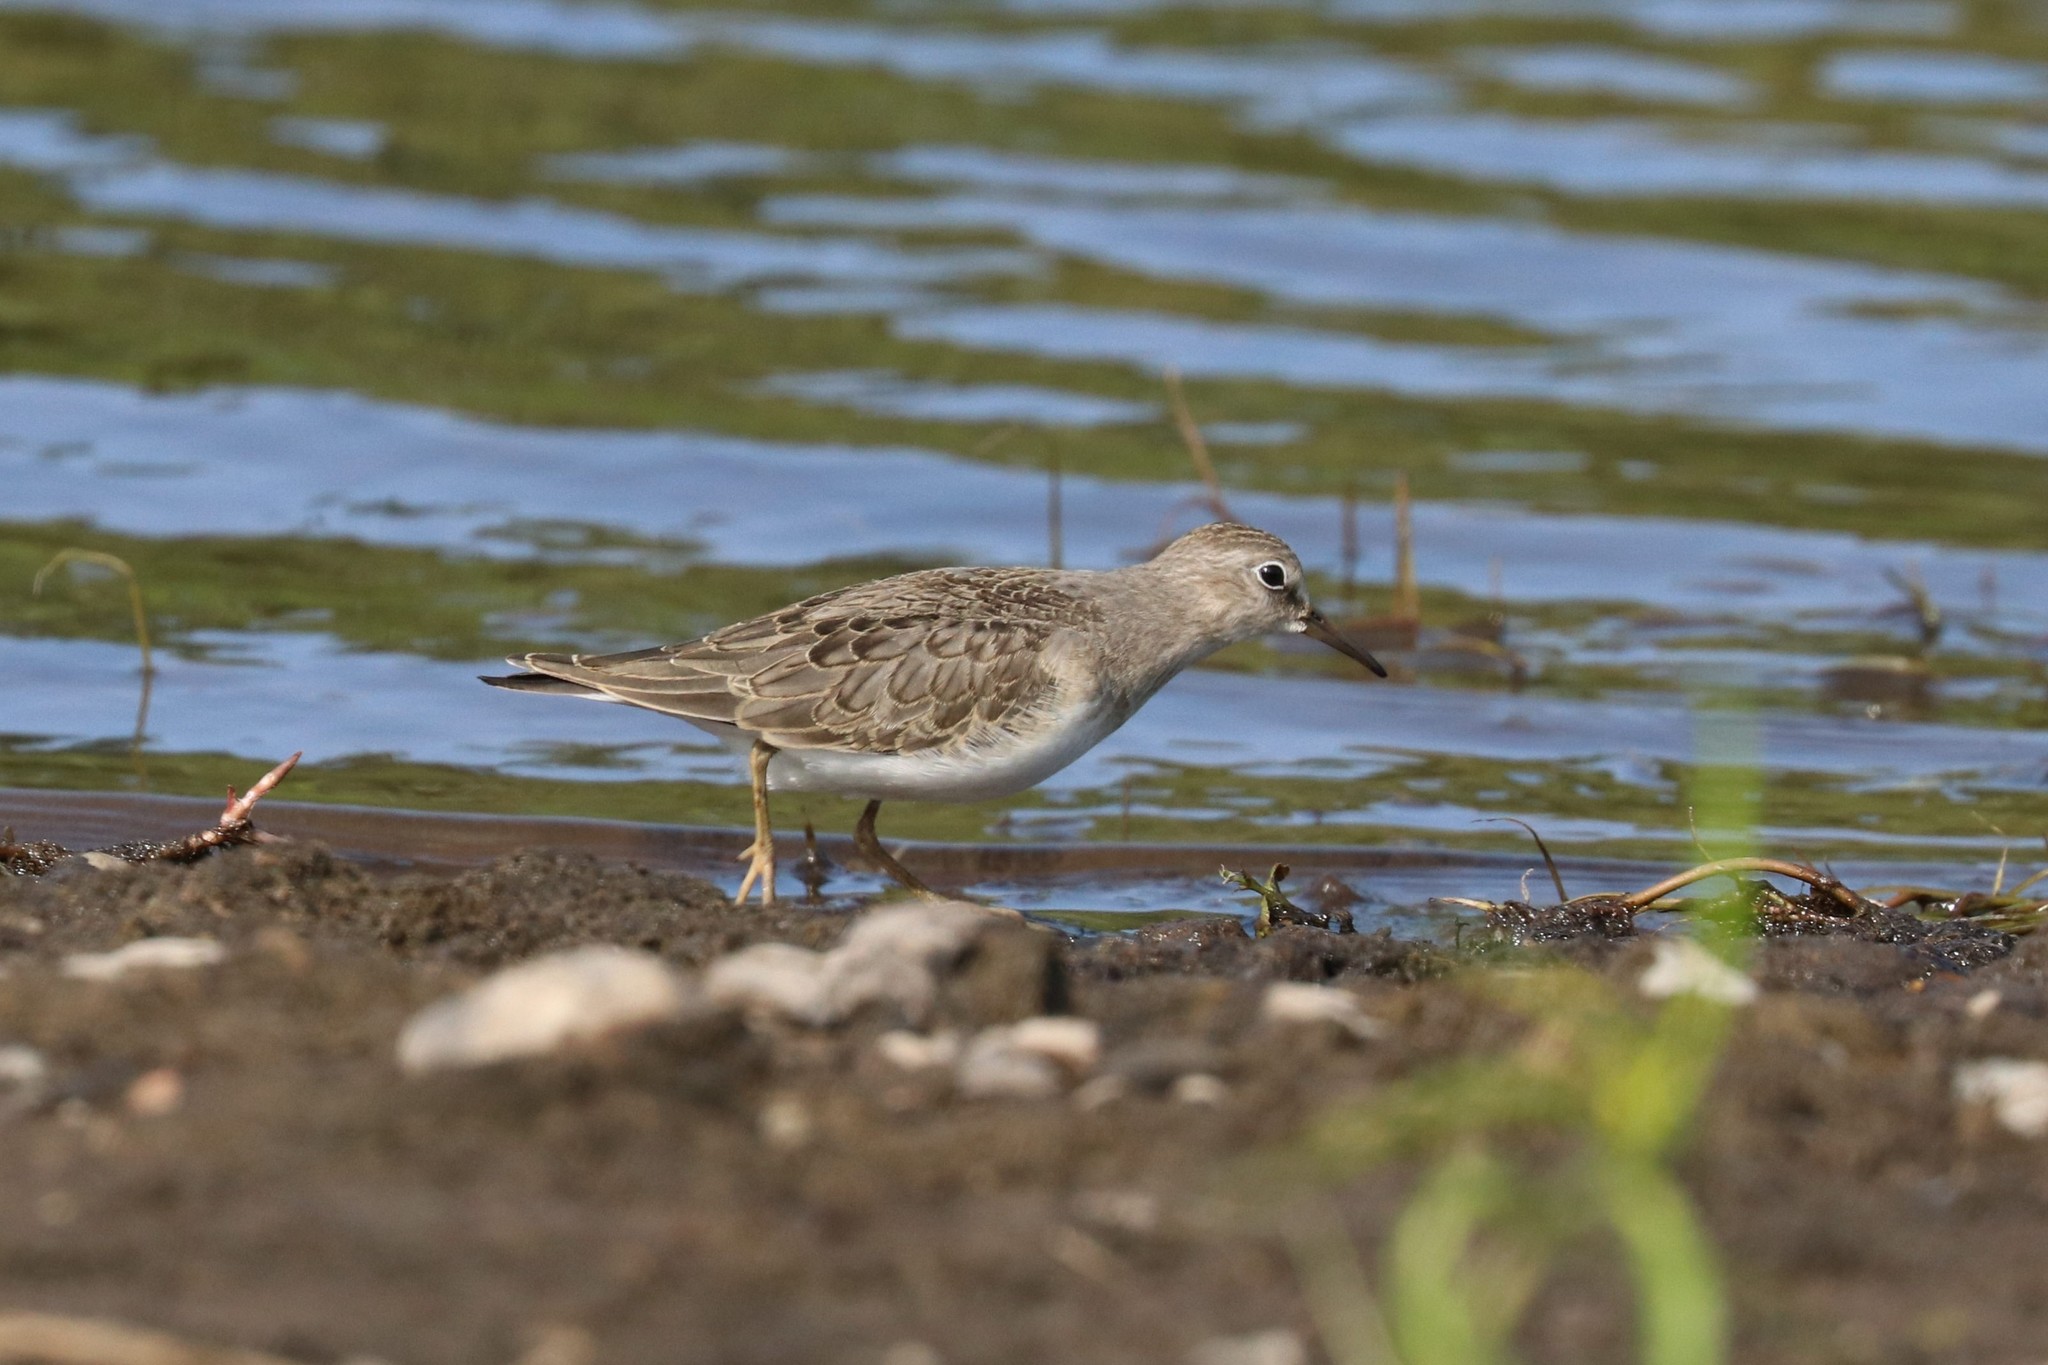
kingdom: Animalia
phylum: Chordata
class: Aves
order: Charadriiformes
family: Scolopacidae
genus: Calidris
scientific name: Calidris temminckii
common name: Temminck's stint
